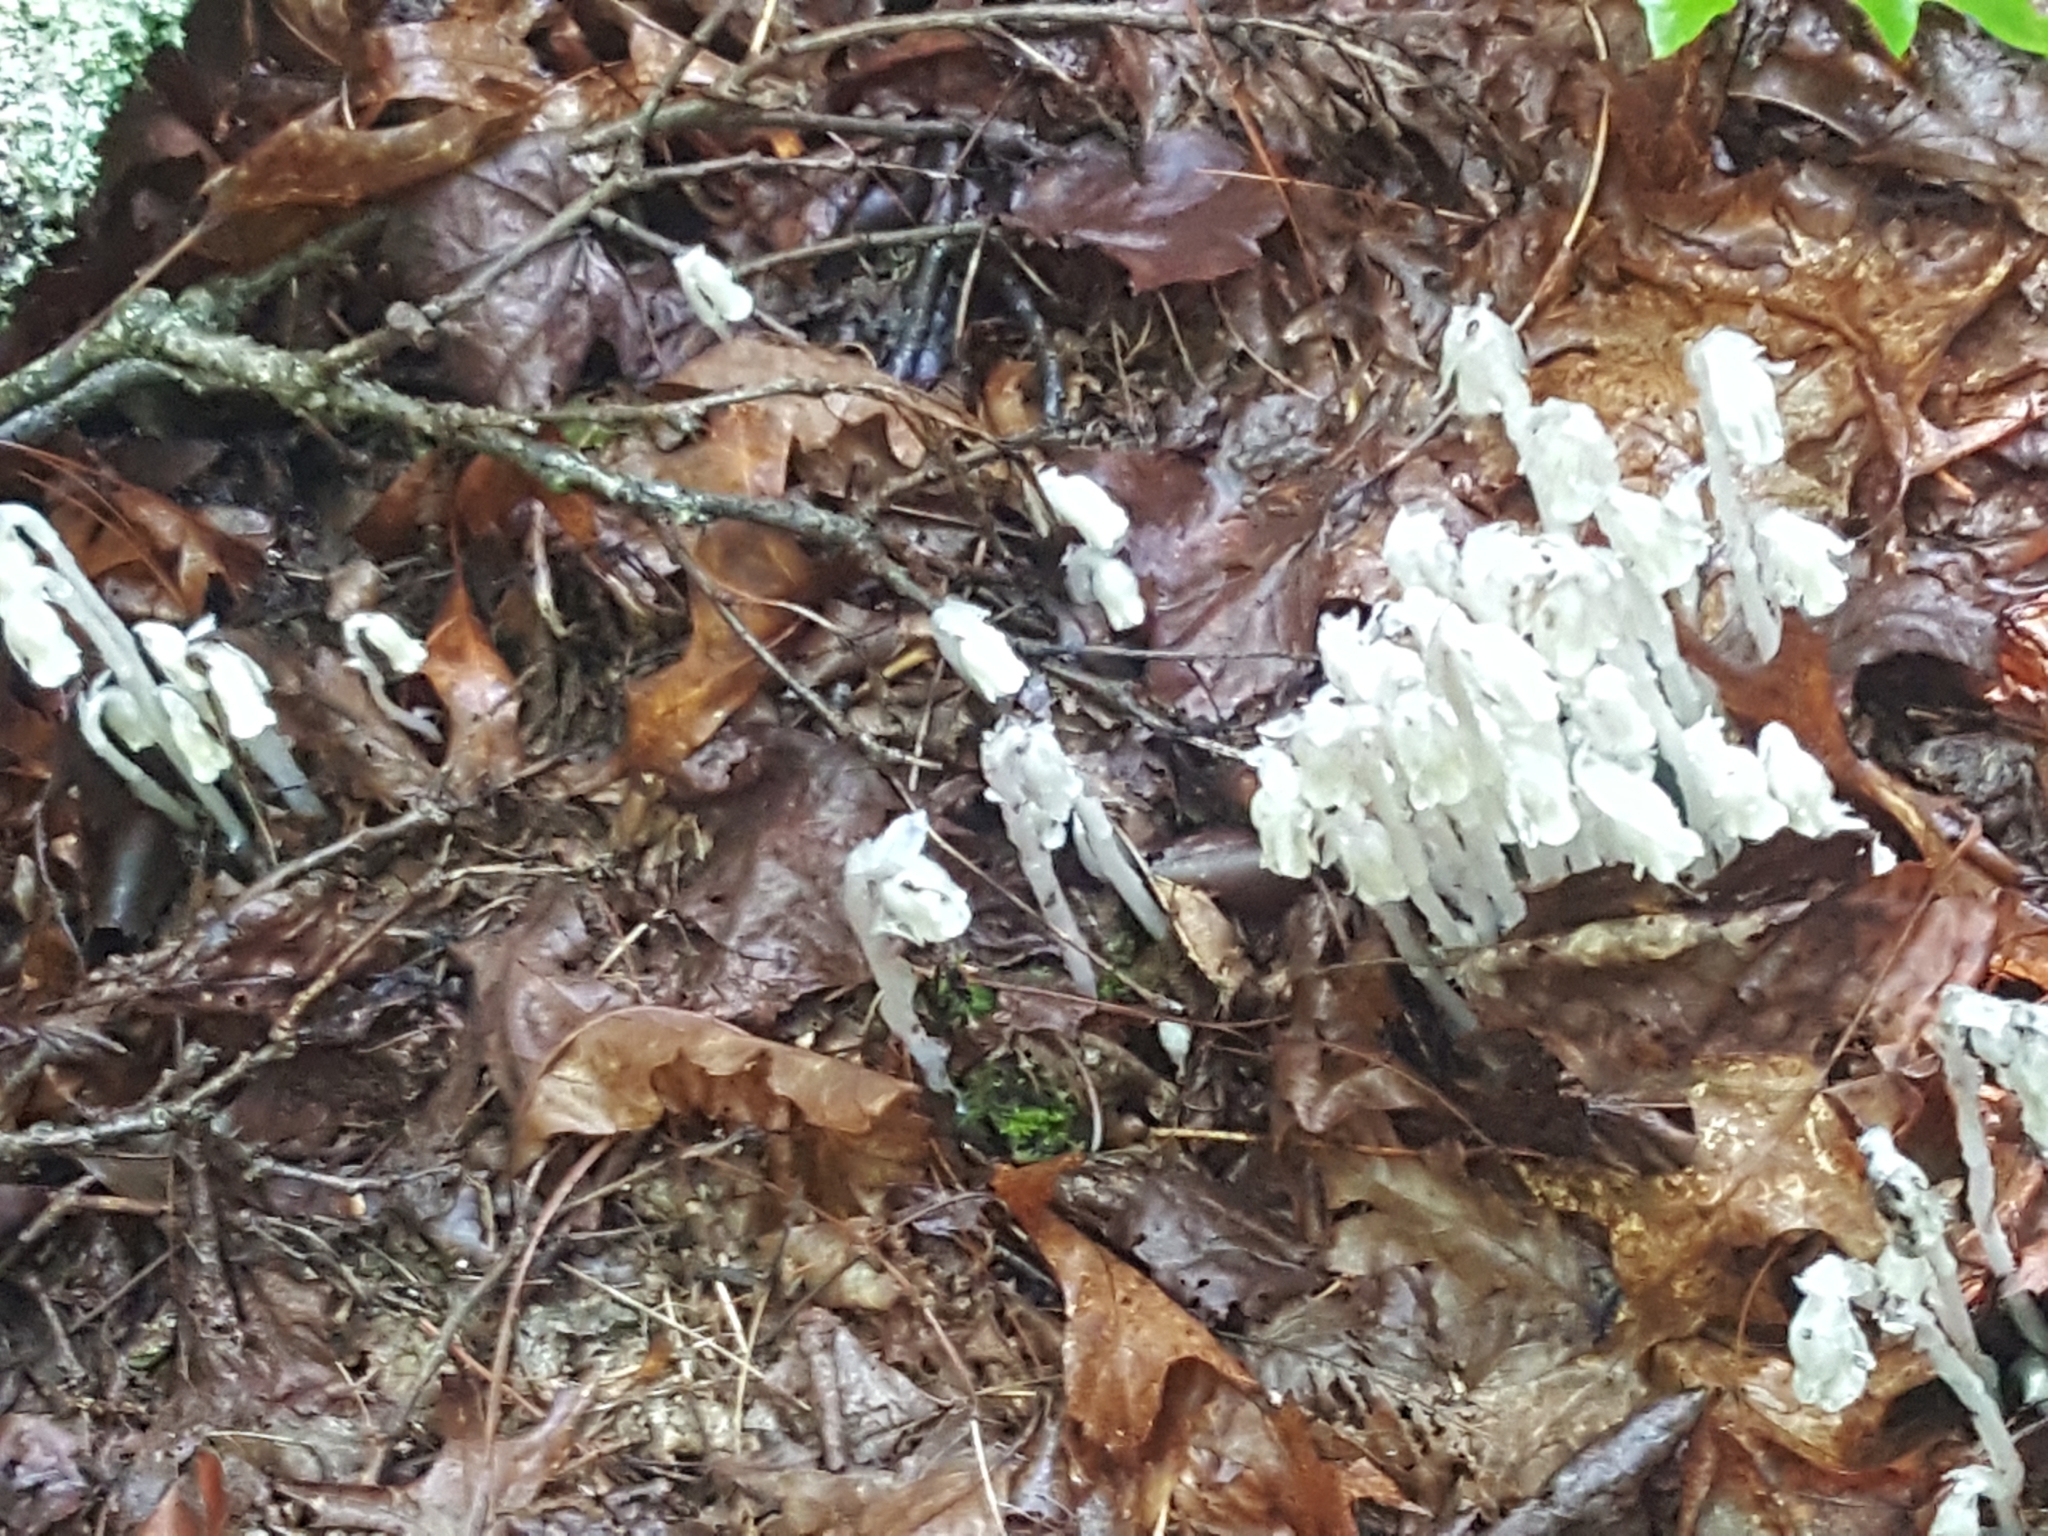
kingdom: Plantae
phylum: Tracheophyta
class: Magnoliopsida
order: Ericales
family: Ericaceae
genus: Monotropa
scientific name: Monotropa uniflora
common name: Convulsion root
